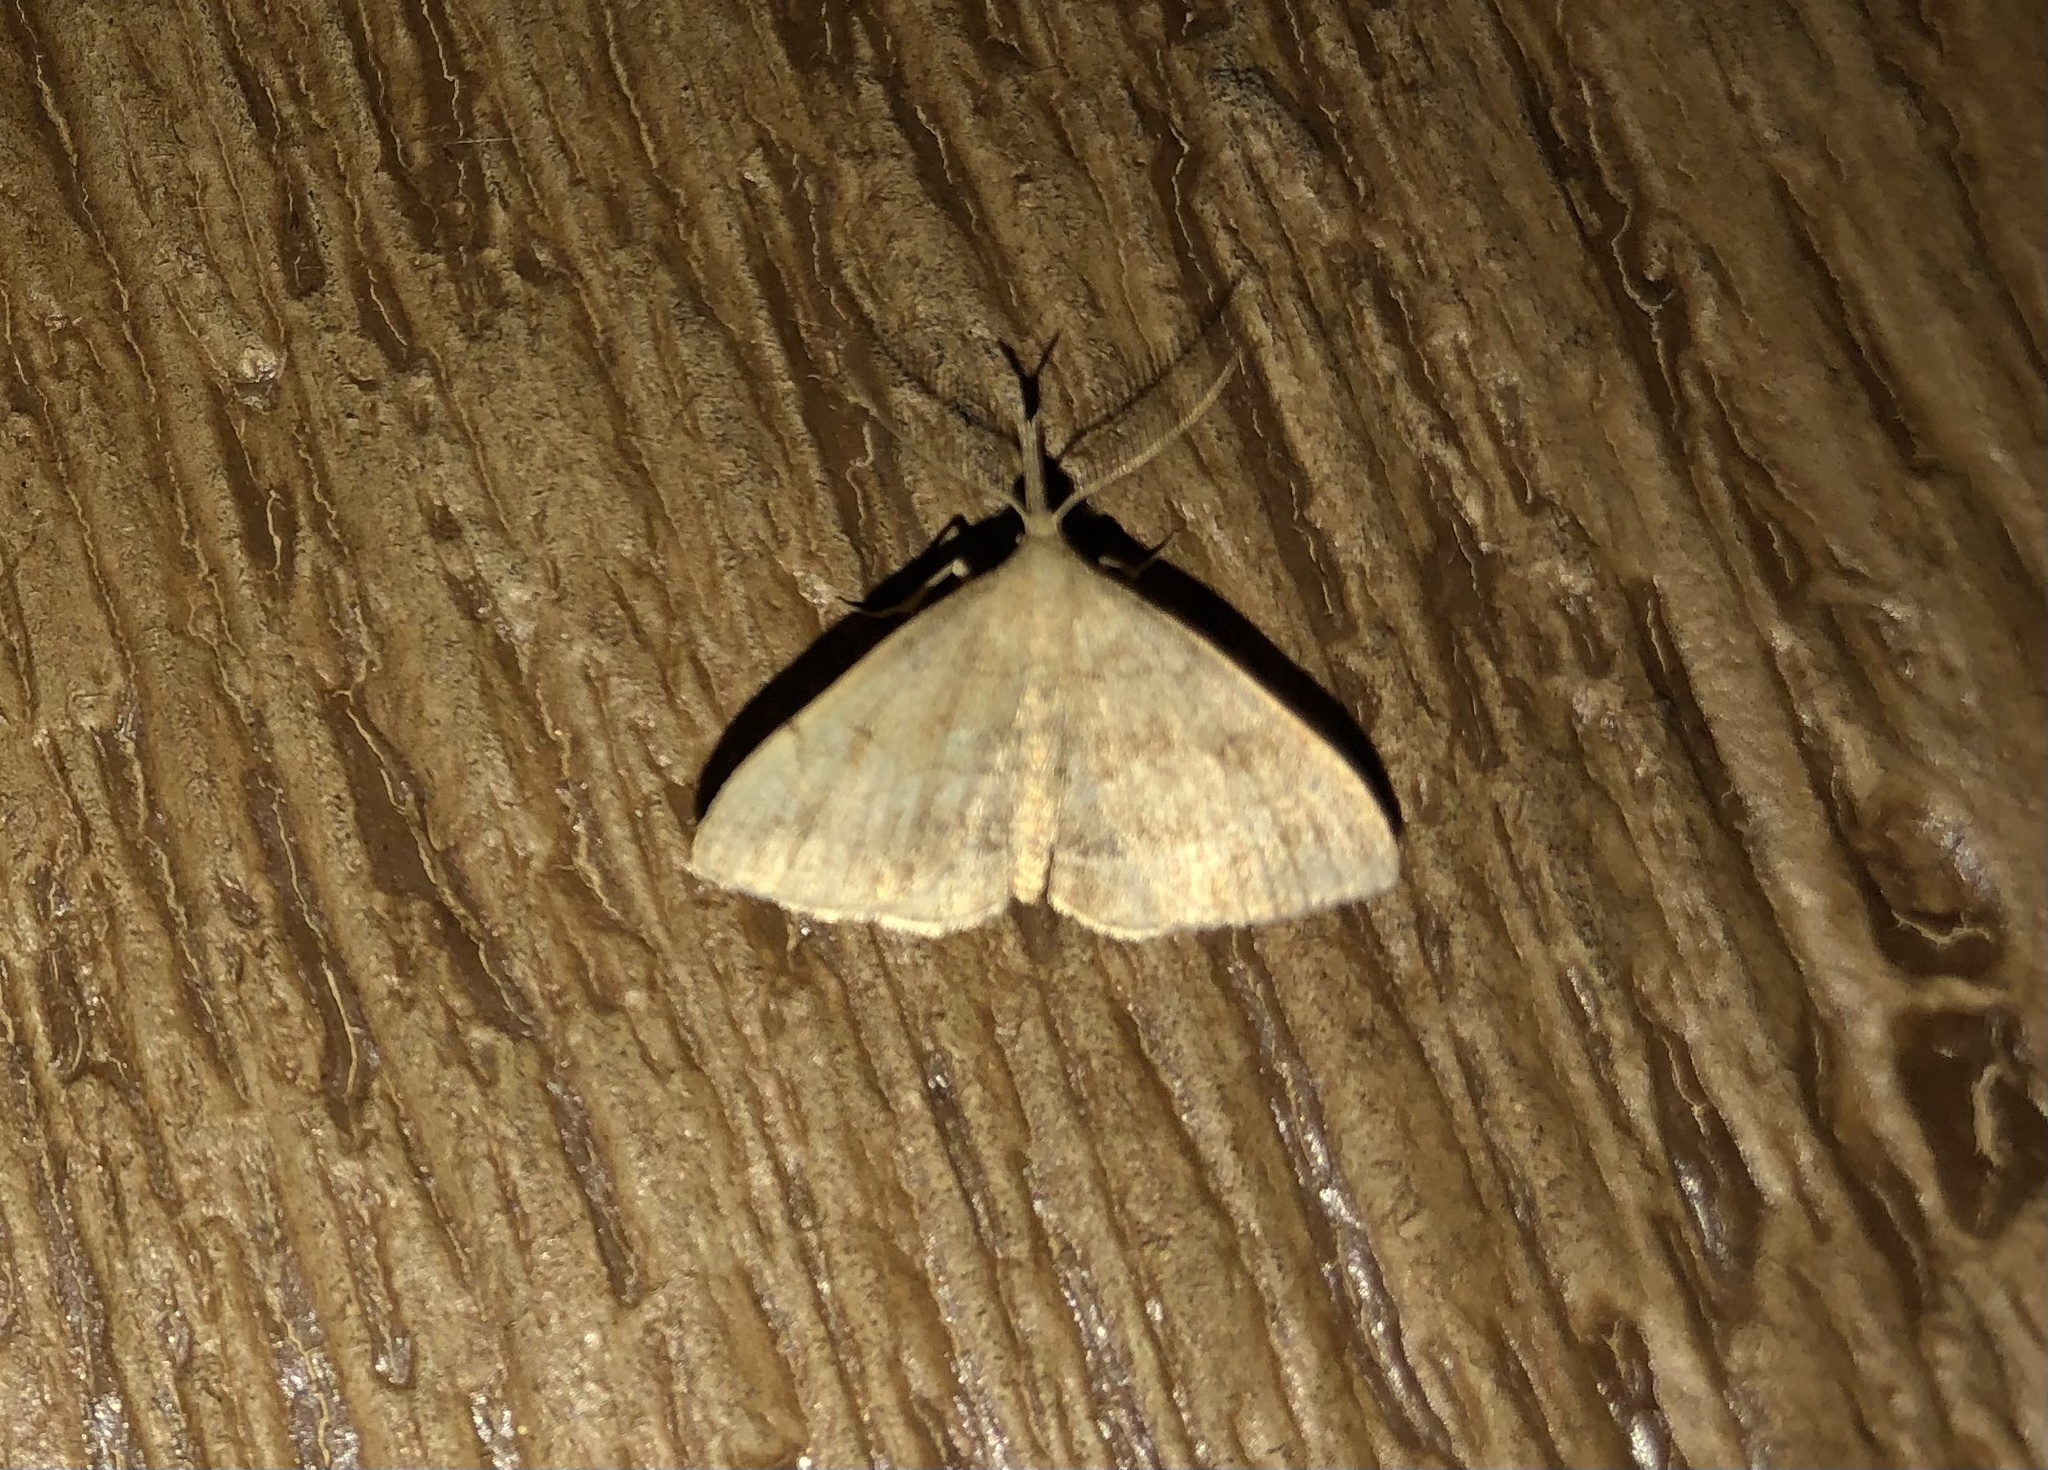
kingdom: Animalia
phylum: Arthropoda
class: Insecta
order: Lepidoptera
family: Erebidae
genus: Phalaenostola
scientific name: Phalaenostola metonalis
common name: Pale phalaenostola moth
